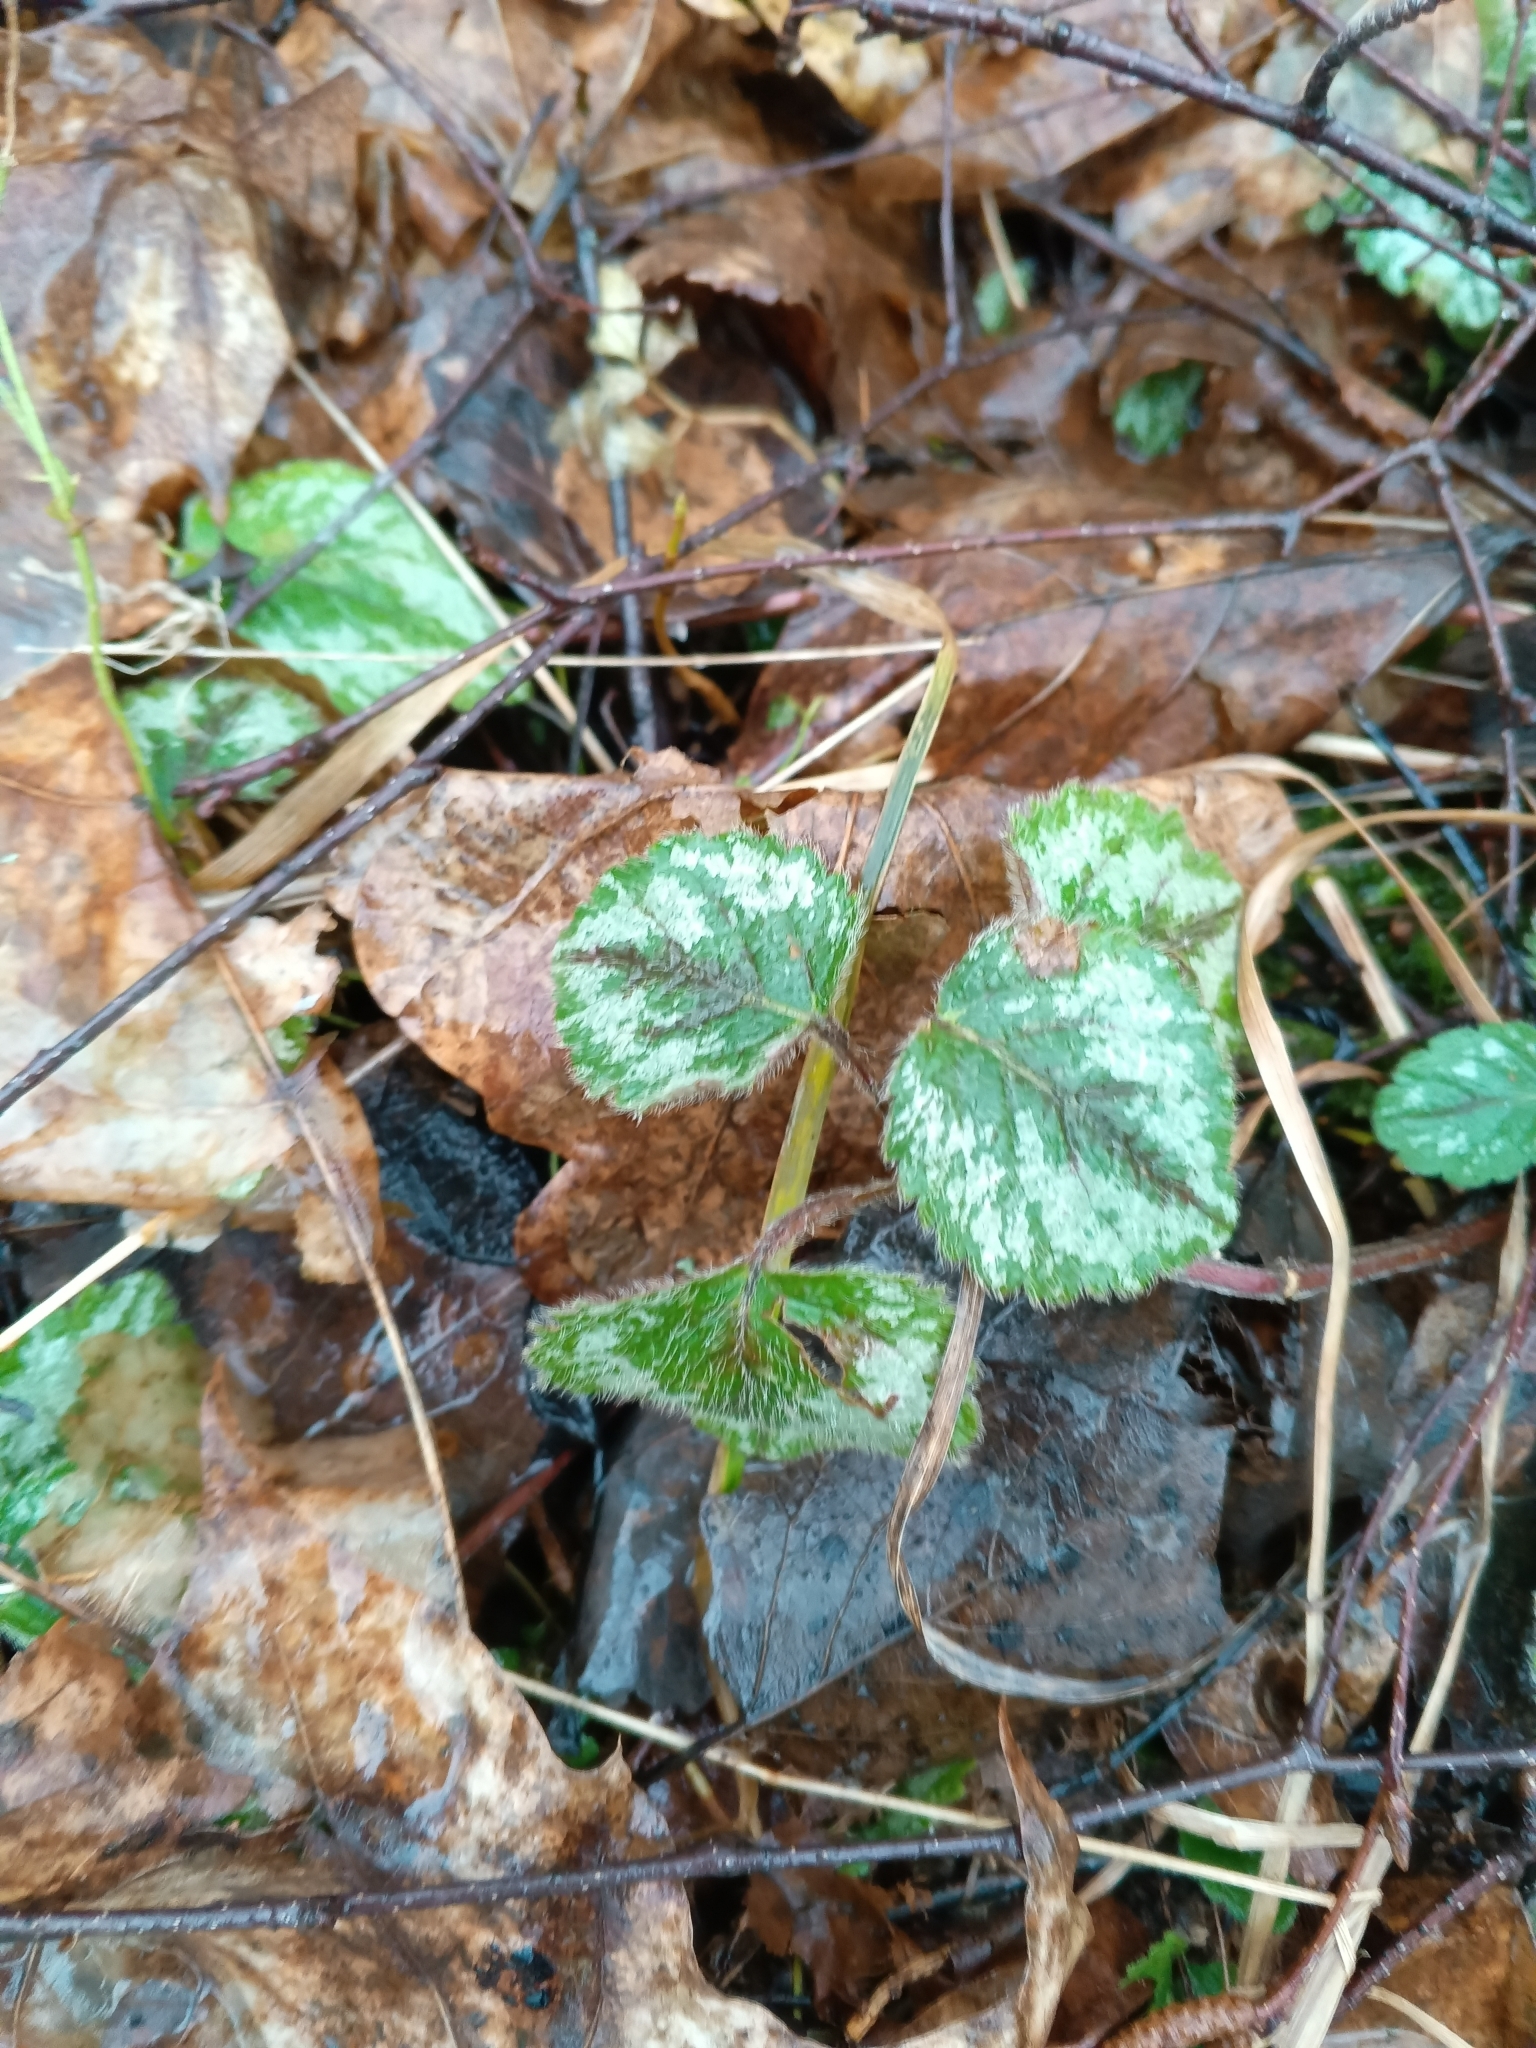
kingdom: Plantae
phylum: Tracheophyta
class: Magnoliopsida
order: Lamiales
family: Lamiaceae
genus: Lamium
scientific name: Lamium galeobdolon
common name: Yellow archangel
